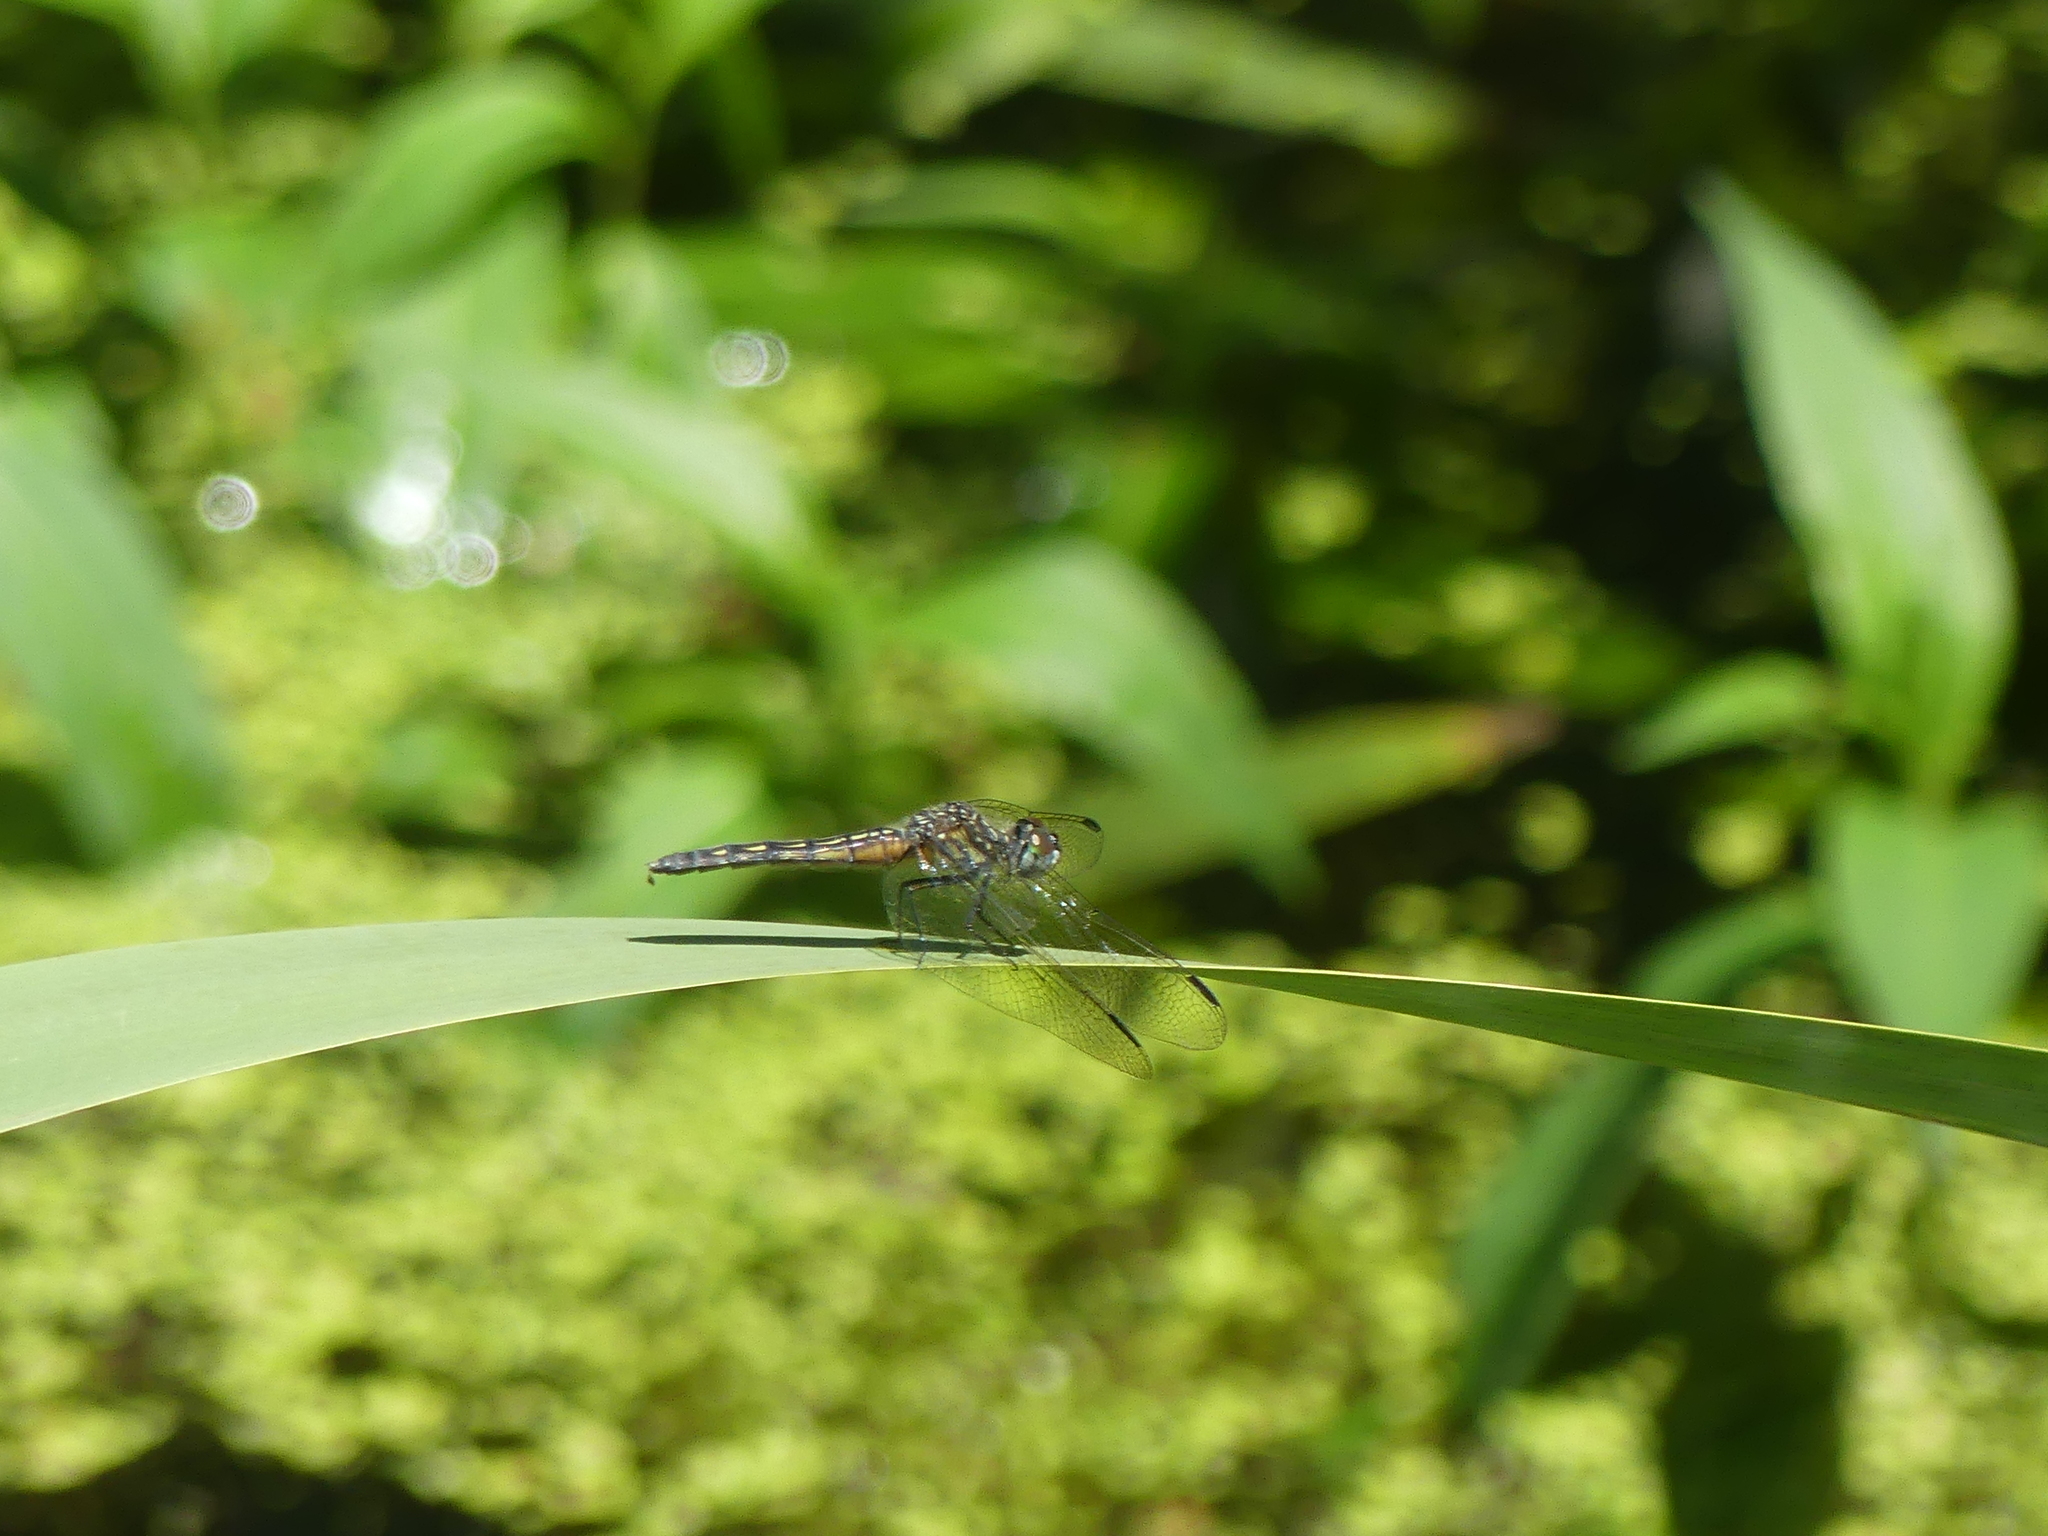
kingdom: Animalia
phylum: Arthropoda
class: Insecta
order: Odonata
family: Libellulidae
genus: Pachydiplax
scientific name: Pachydiplax longipennis
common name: Blue dasher
